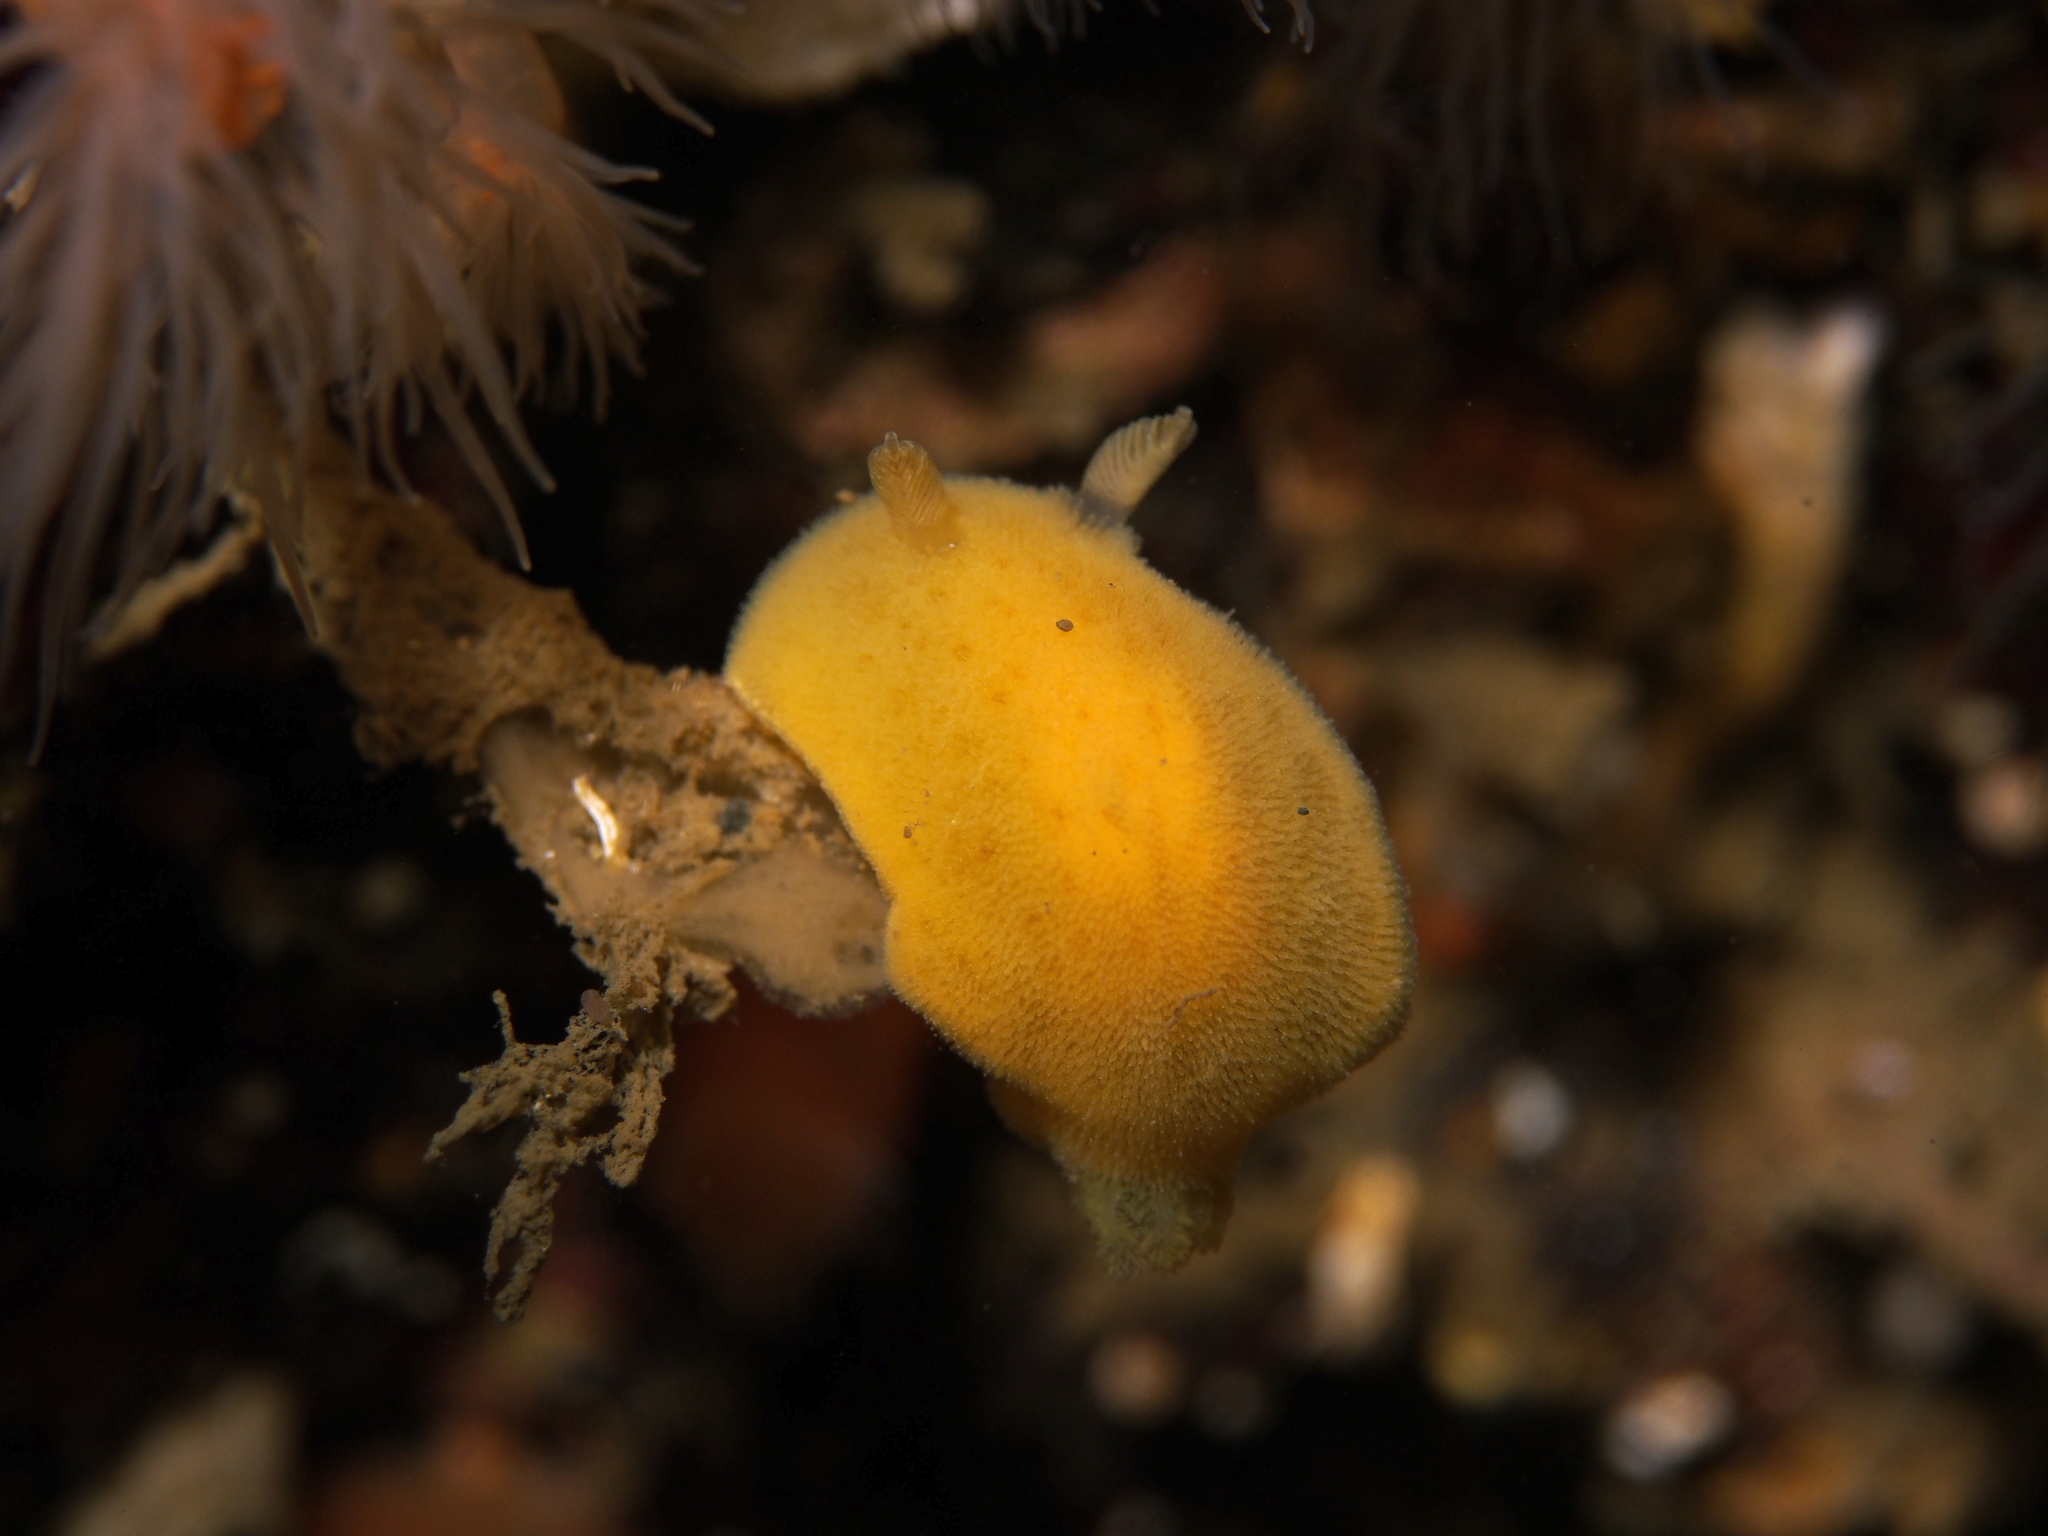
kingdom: Animalia
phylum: Mollusca
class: Gastropoda
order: Nudibranchia
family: Discodorididae
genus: Jorunna
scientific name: Jorunna tomentosa
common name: Grey sea slug
